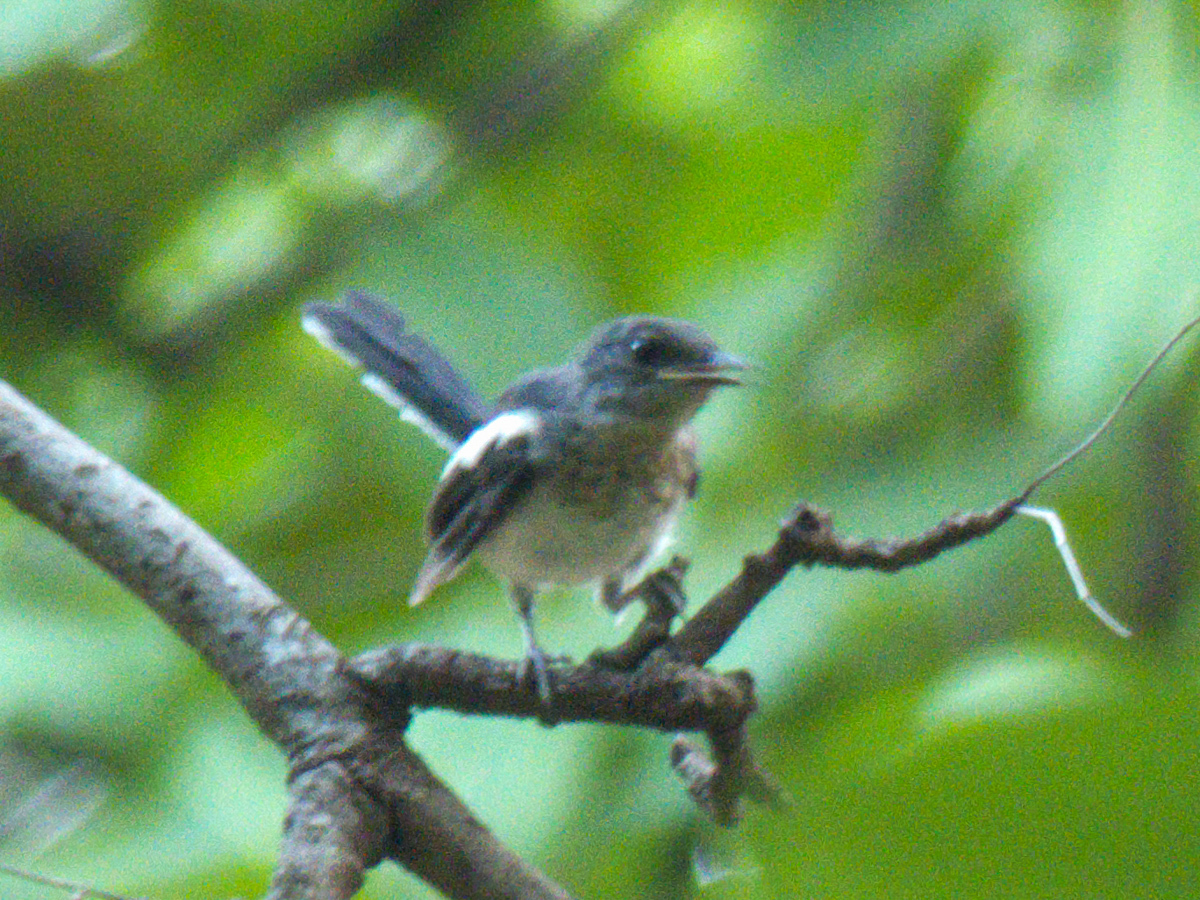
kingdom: Animalia
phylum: Chordata
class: Aves
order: Passeriformes
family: Muscicapidae
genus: Copsychus
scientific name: Copsychus saularis
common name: Oriental magpie-robin
